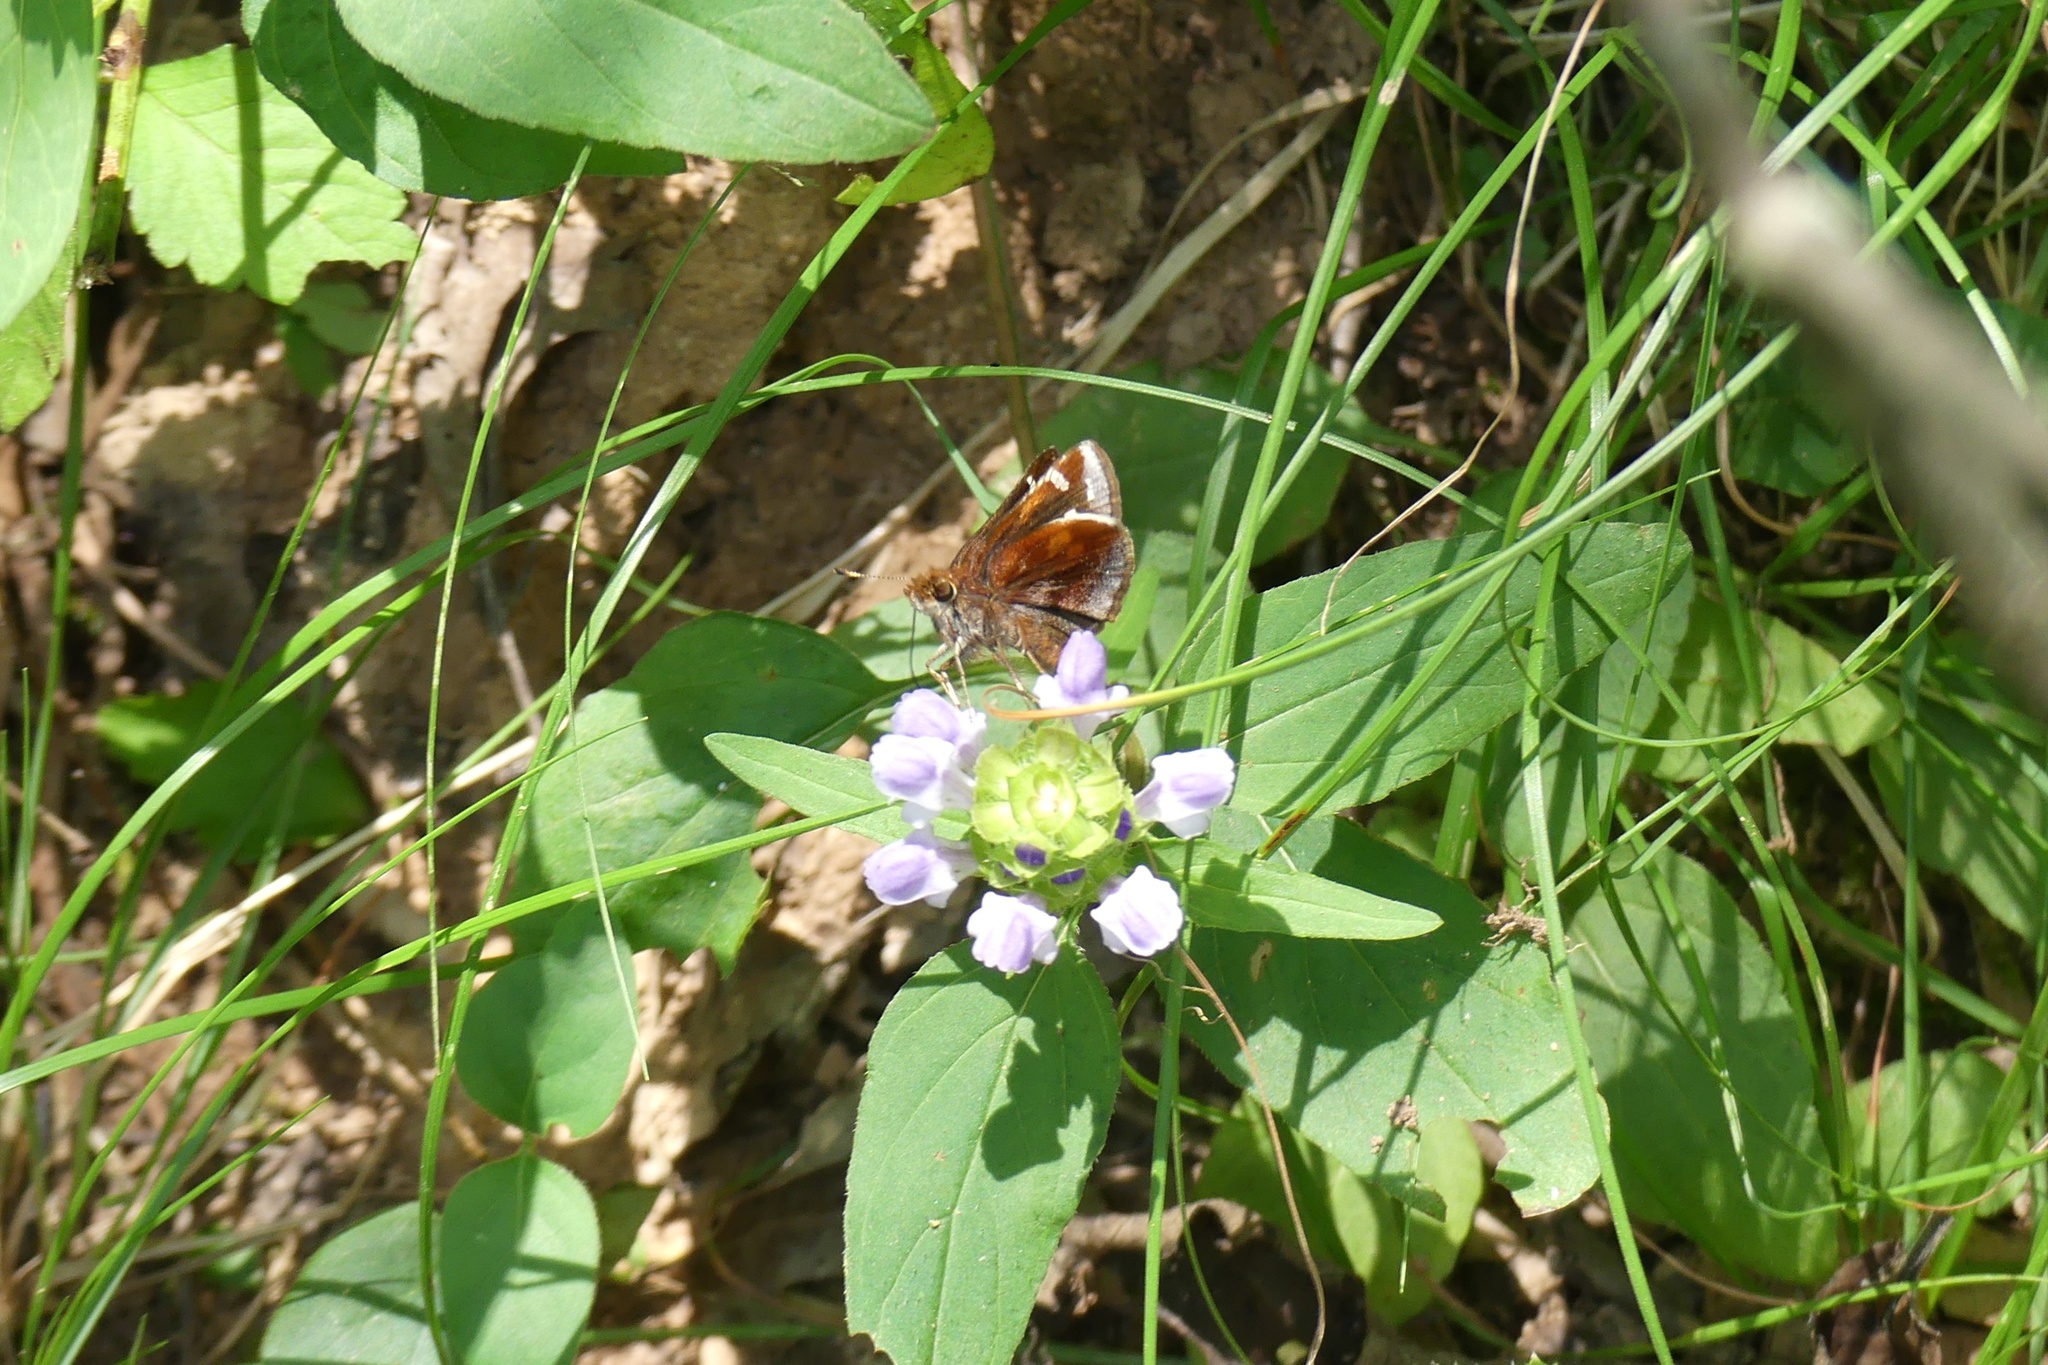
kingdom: Animalia
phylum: Arthropoda
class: Insecta
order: Lepidoptera
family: Hesperiidae
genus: Lon
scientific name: Lon zabulon
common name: Zabulon skipper
